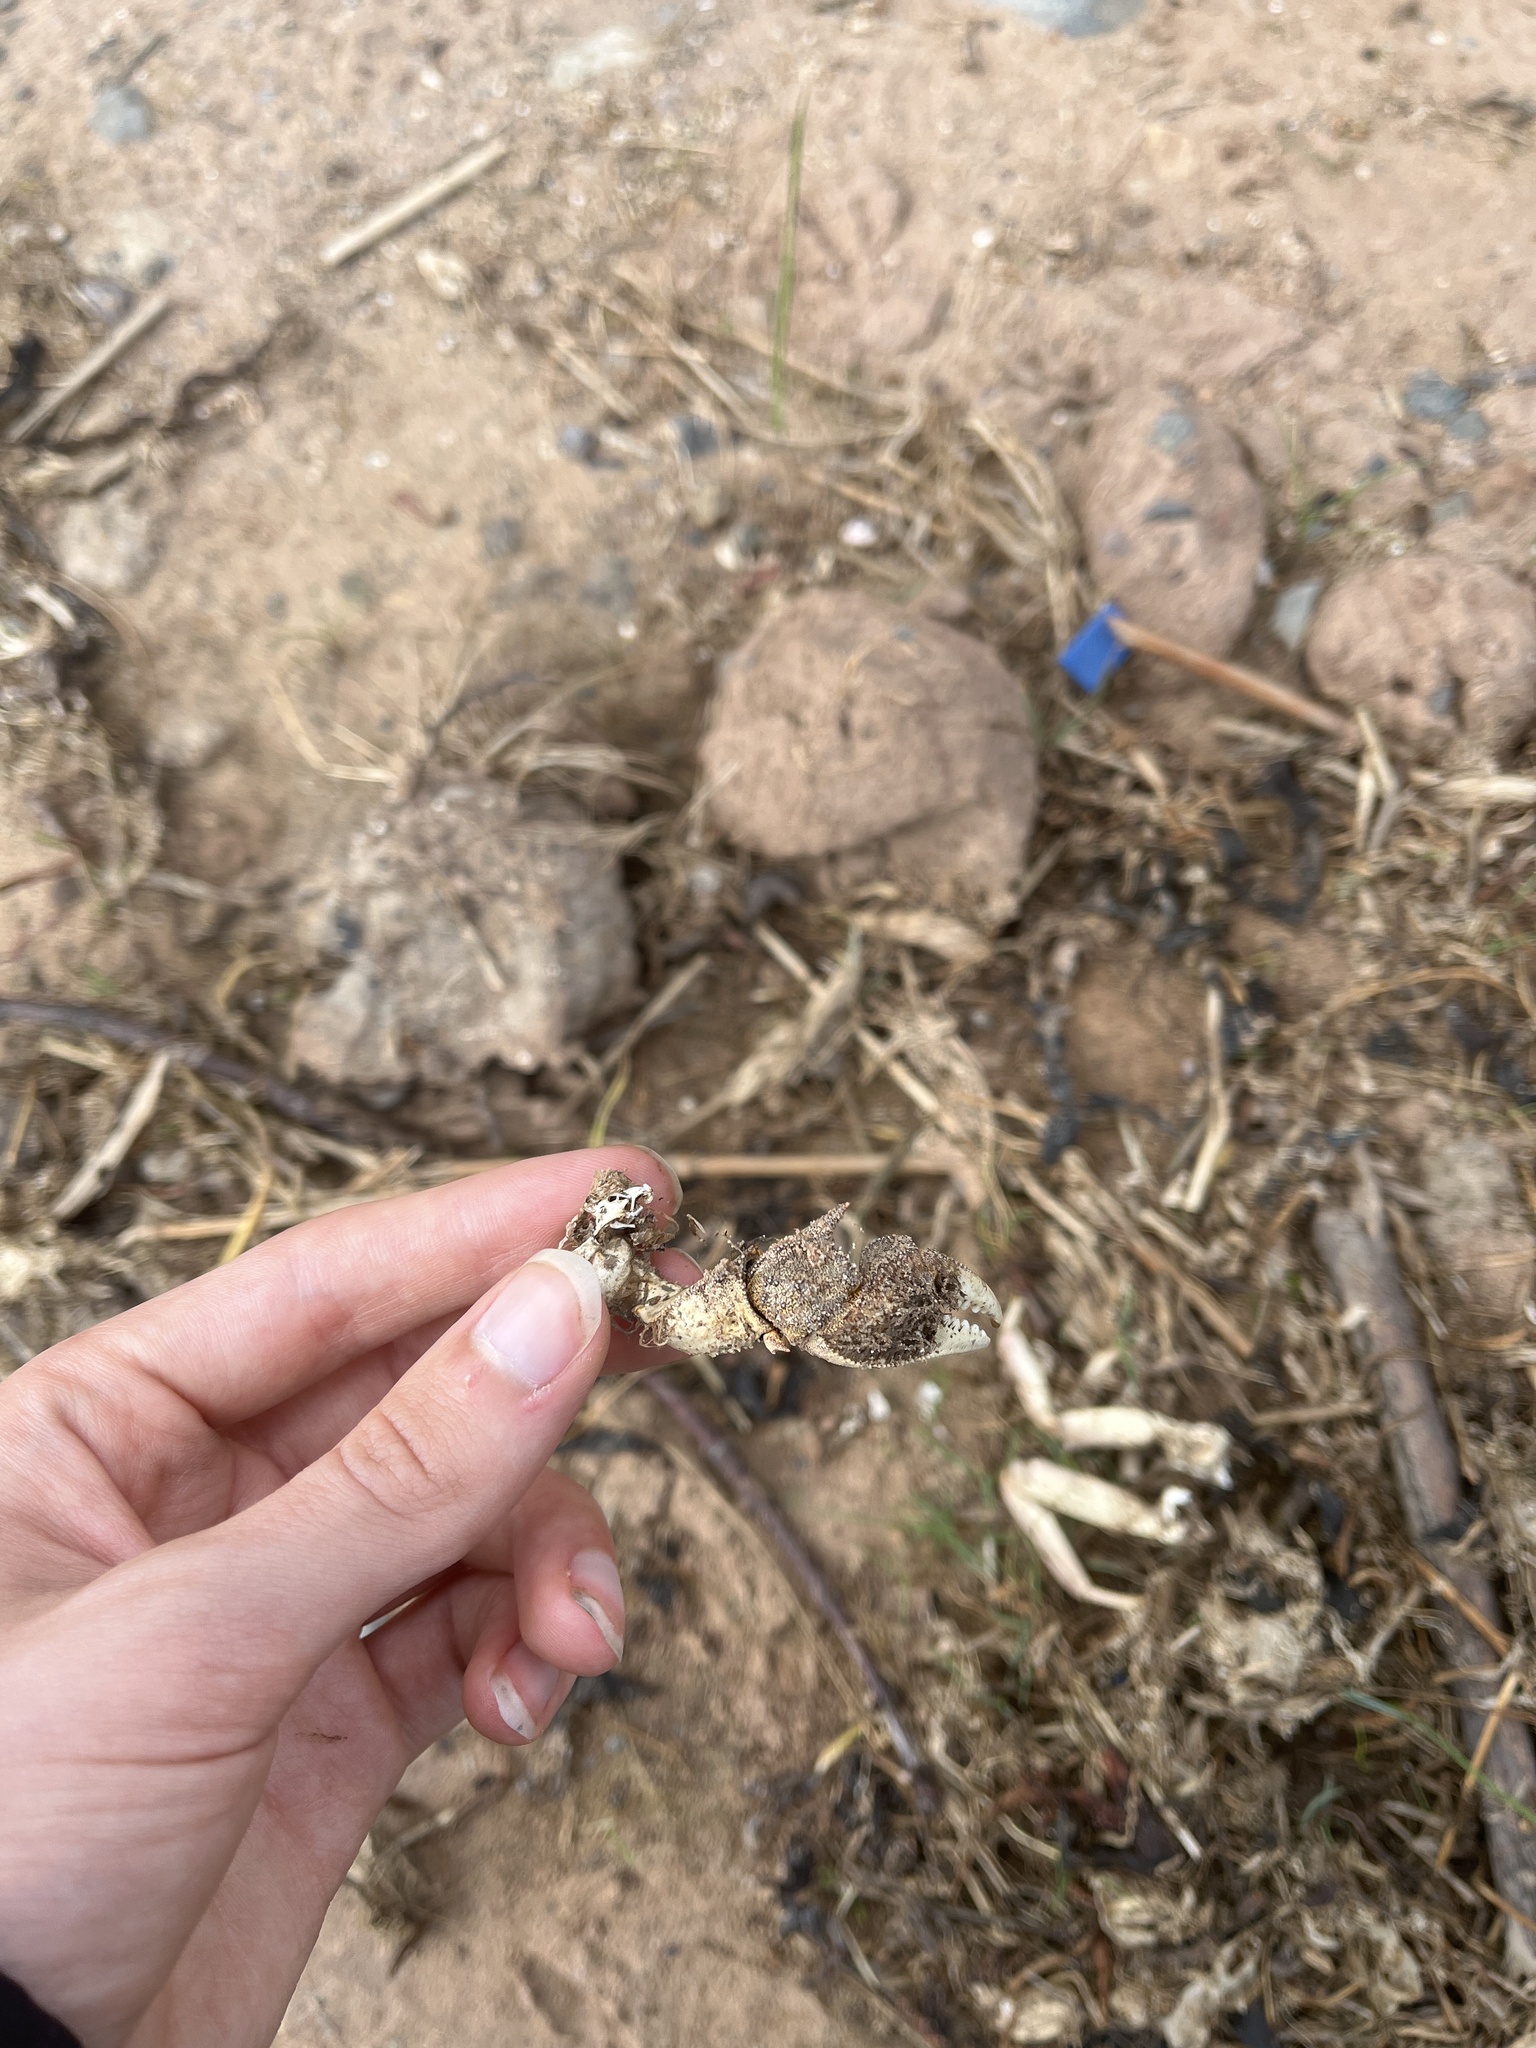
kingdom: Animalia
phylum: Arthropoda
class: Malacostraca
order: Decapoda
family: Varunidae
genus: Eriocheir
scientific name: Eriocheir sinensis
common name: Chinese mitten crab
